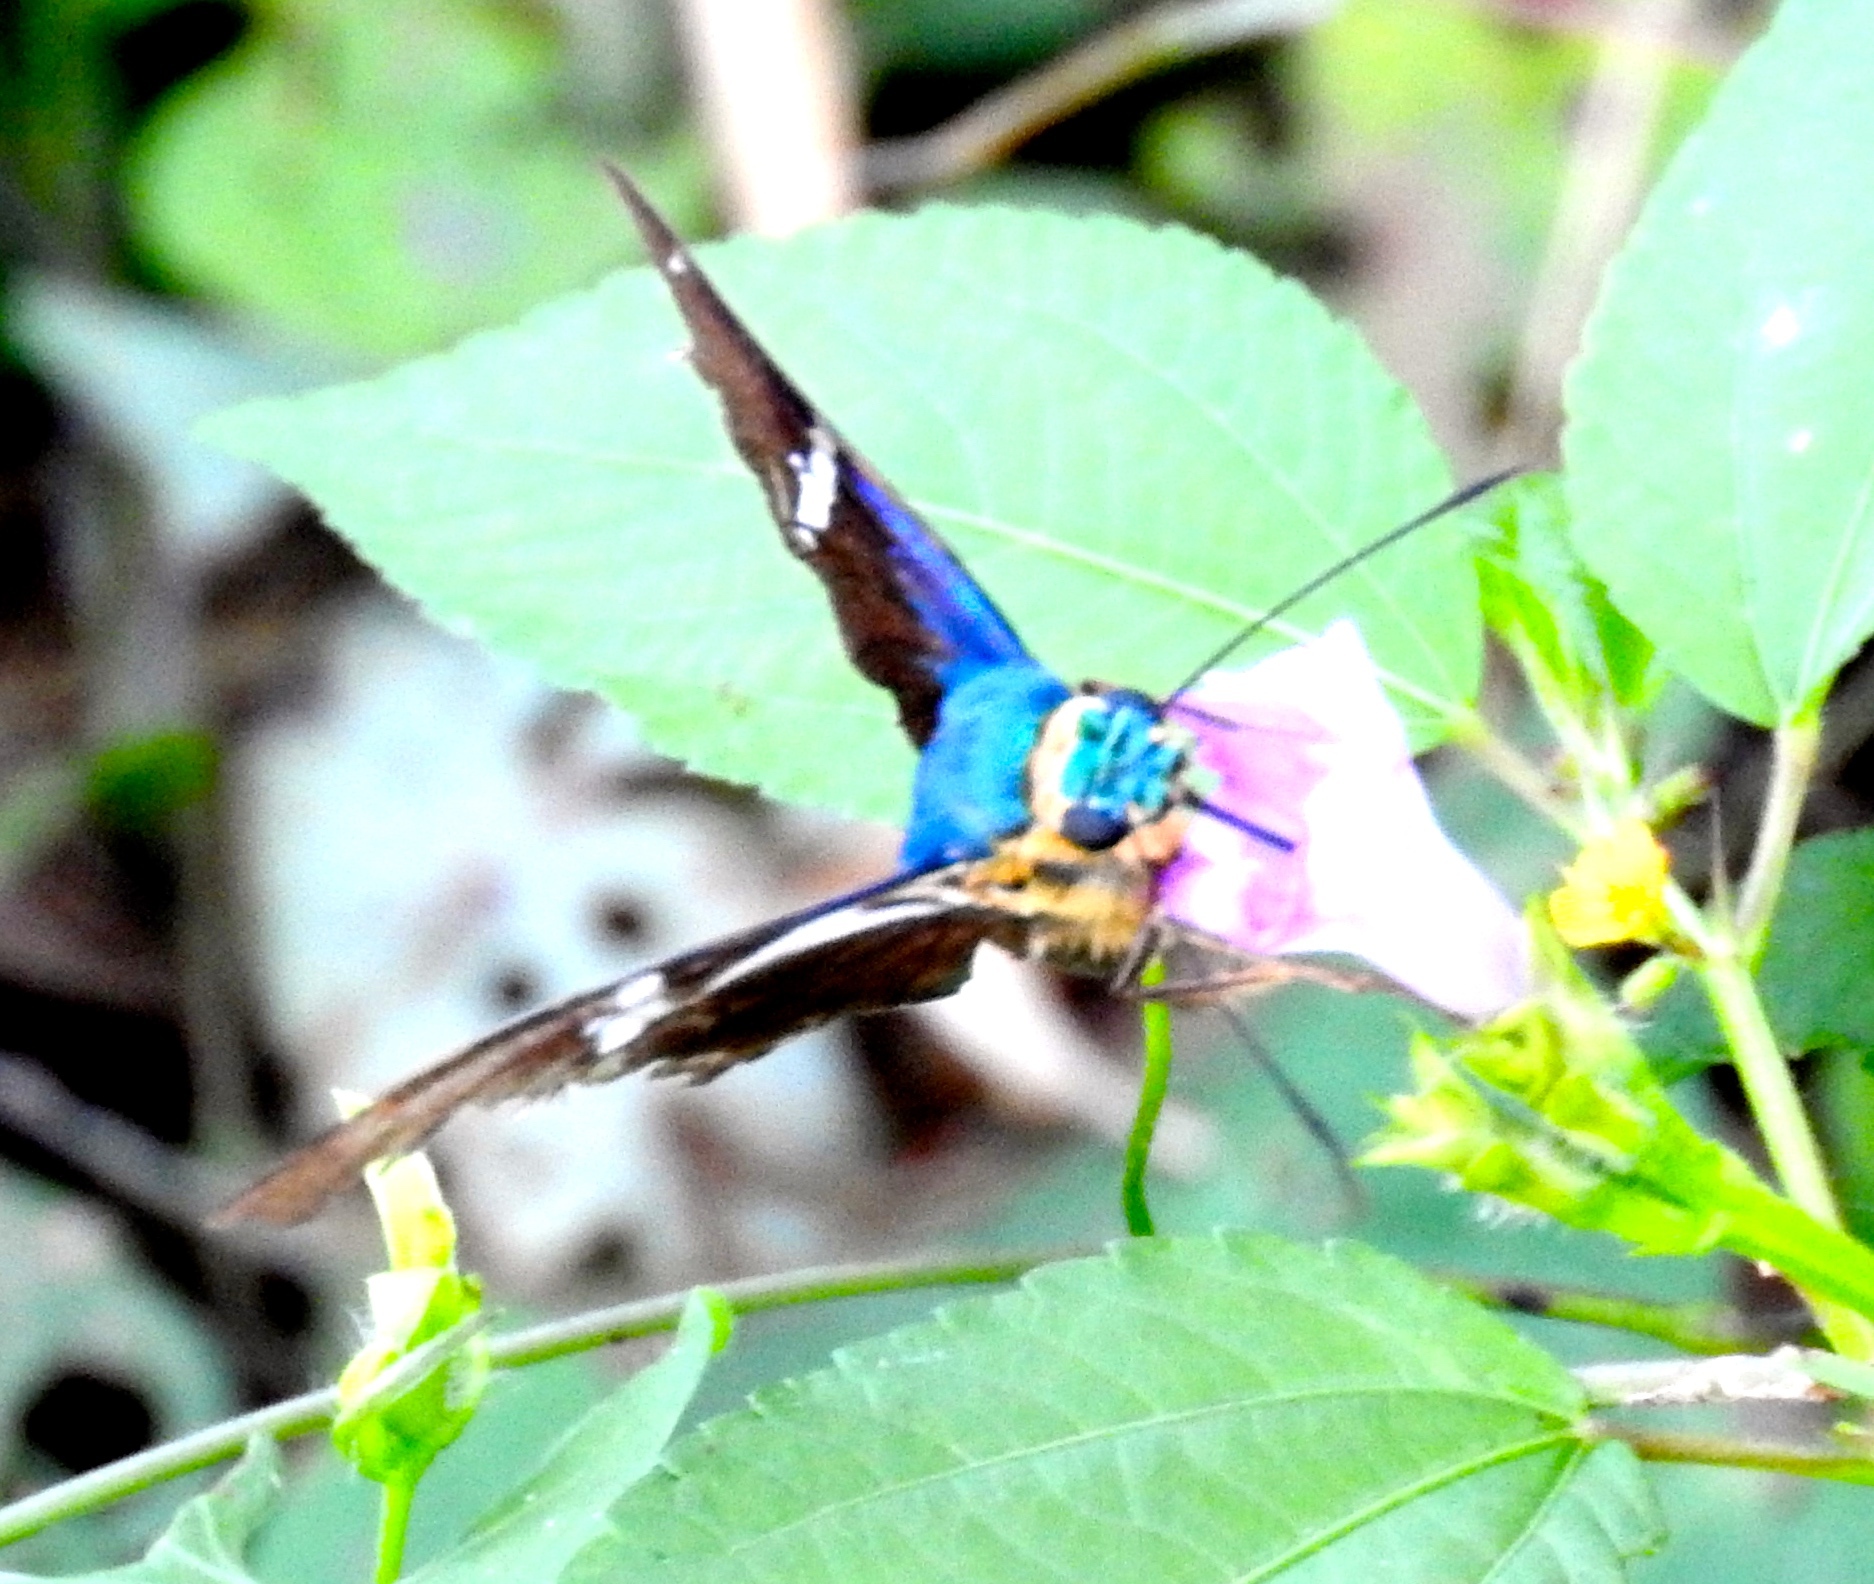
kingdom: Animalia
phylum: Arthropoda
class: Insecta
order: Lepidoptera
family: Hesperiidae
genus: Astraptes
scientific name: Astraptes fulgerator
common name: Two-barred flasher
